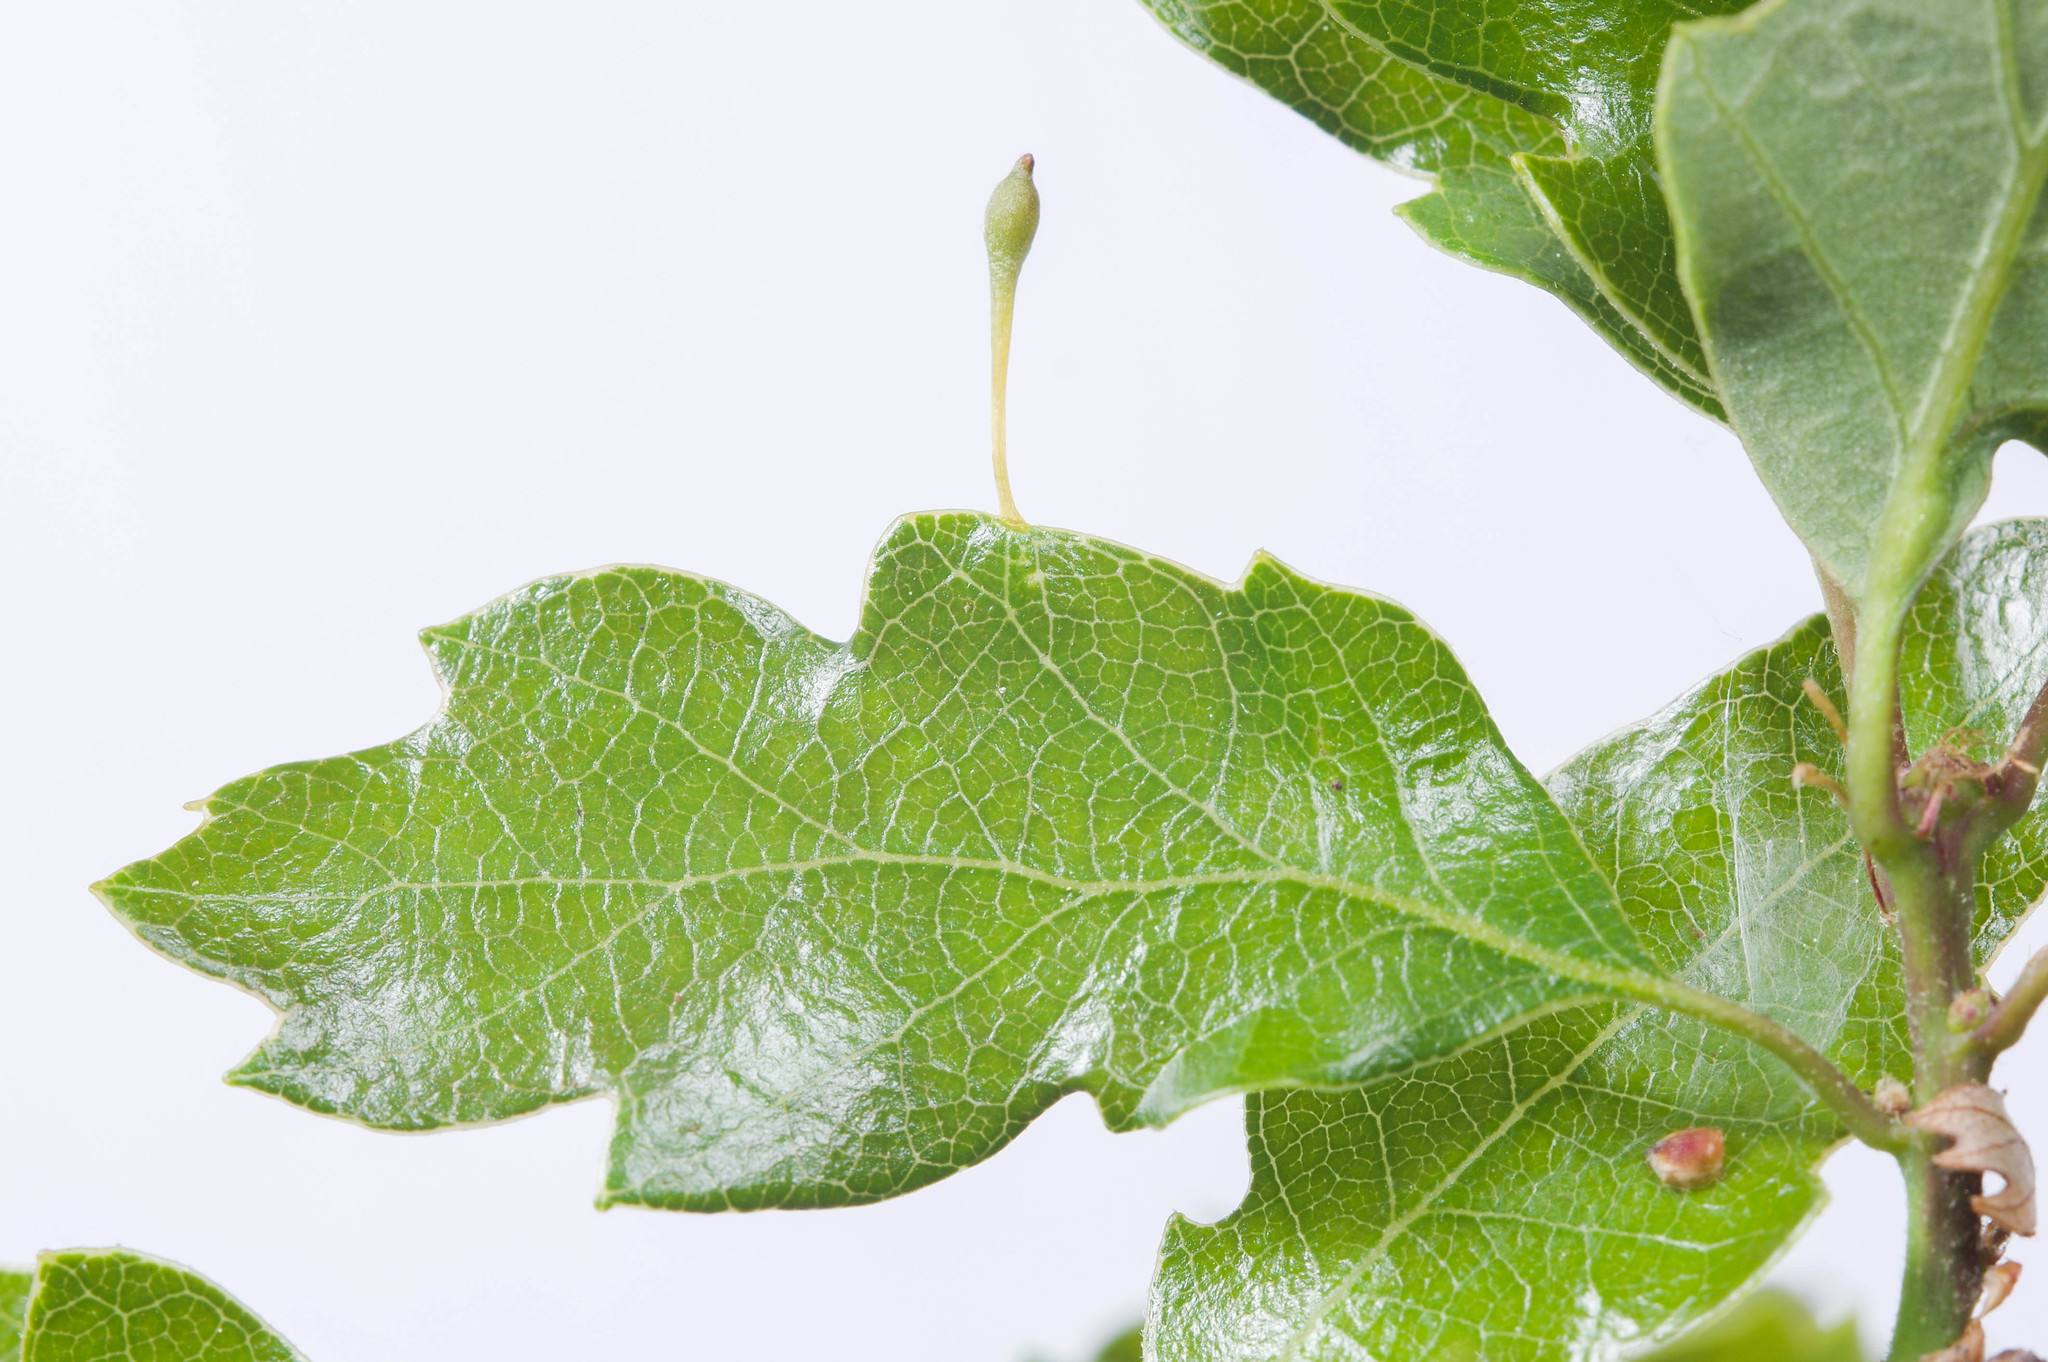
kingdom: Animalia
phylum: Arthropoda
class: Insecta
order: Hymenoptera
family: Cynipidae
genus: Andricus
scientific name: Andricus
